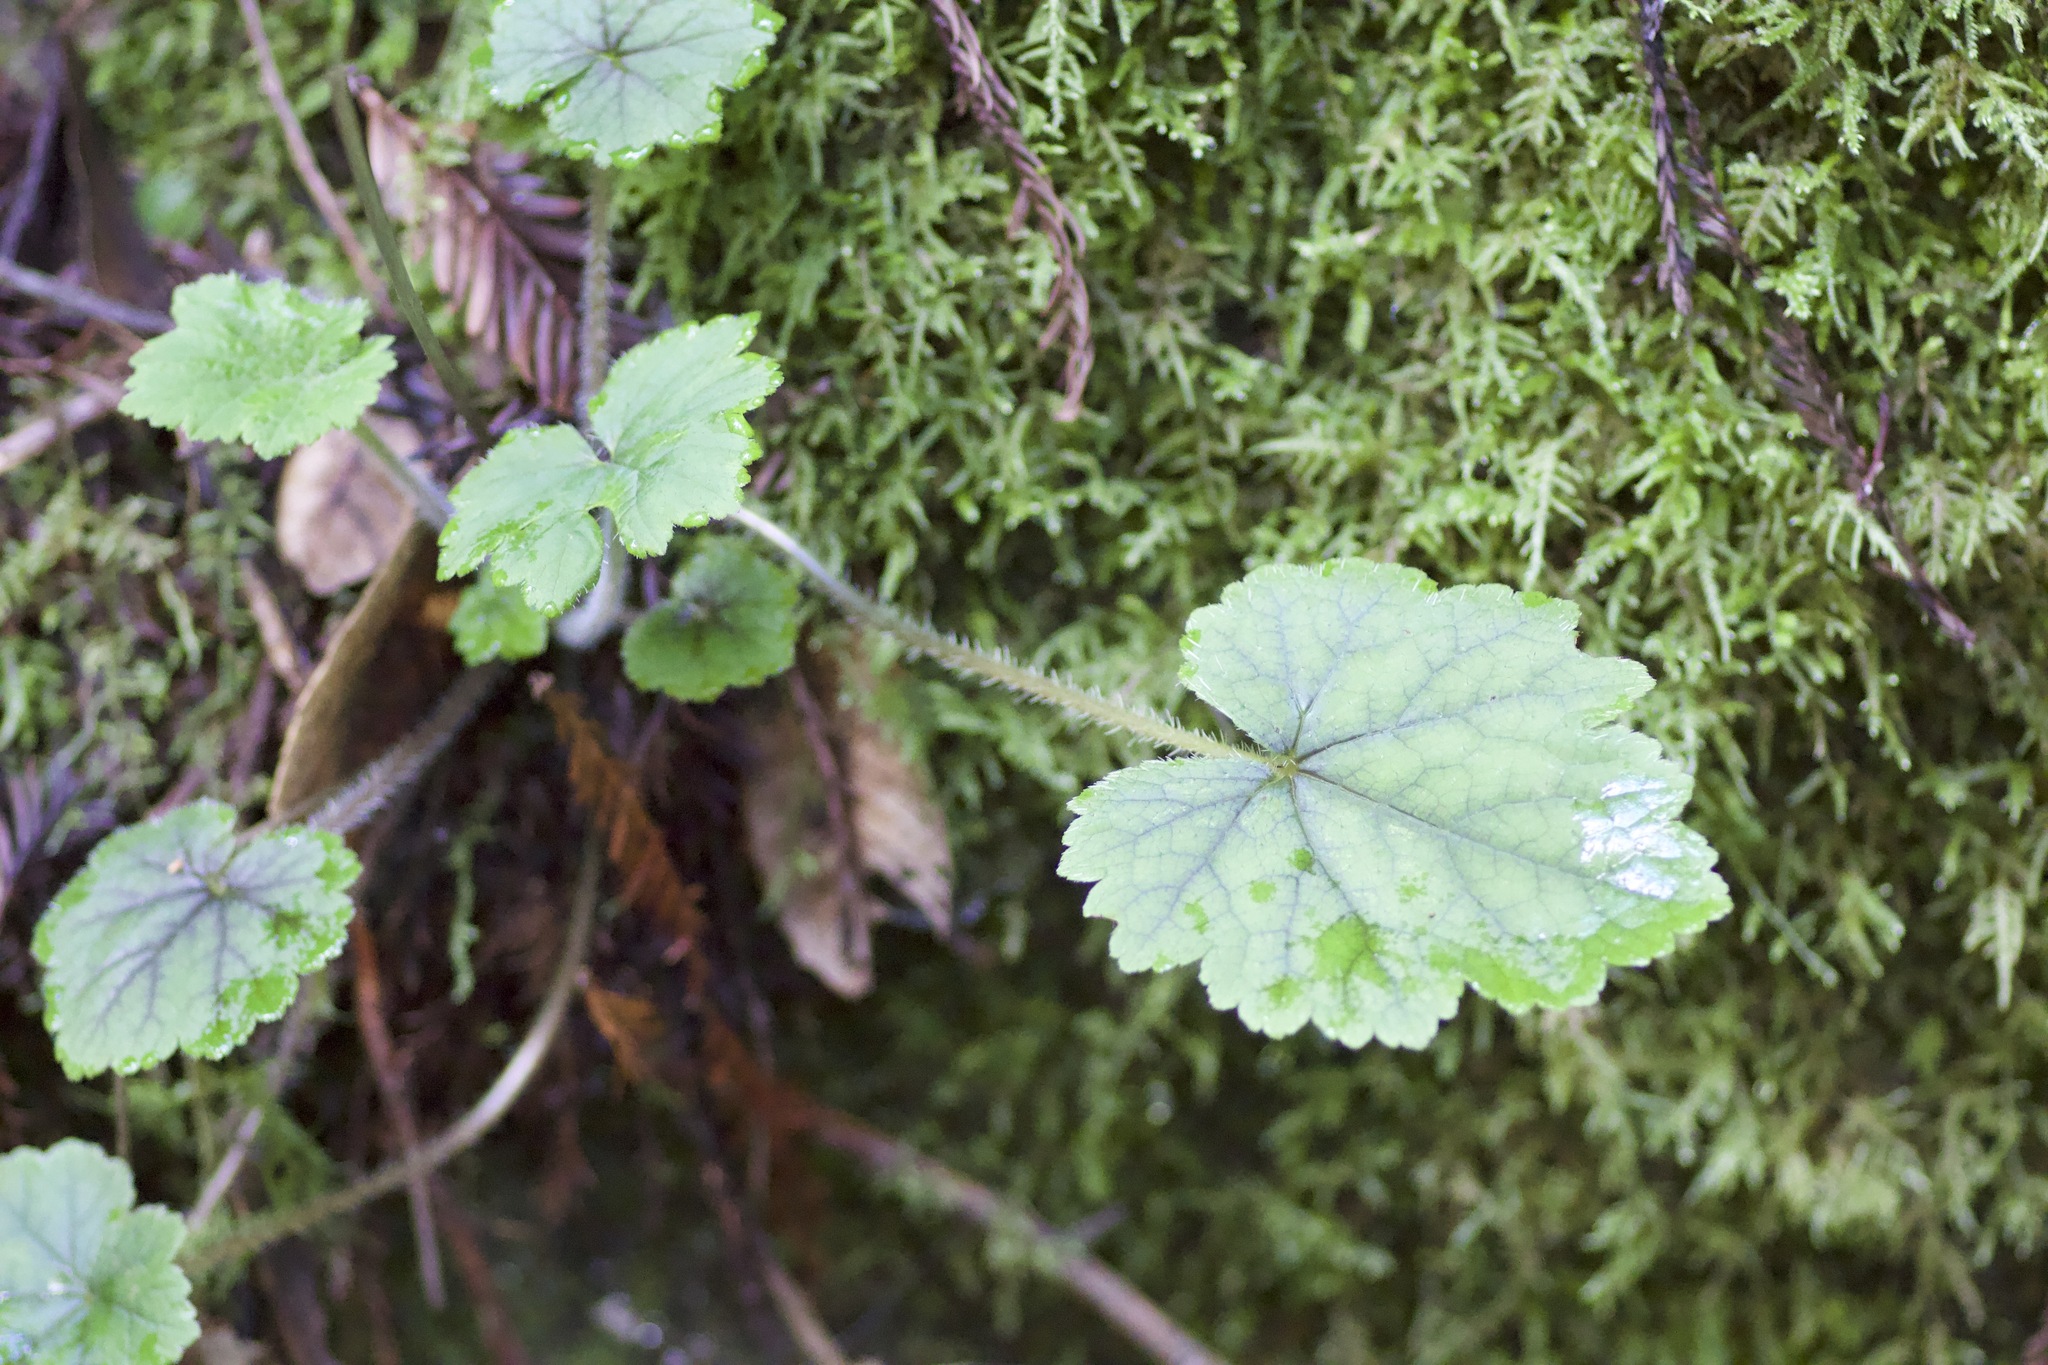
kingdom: Plantae
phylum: Tracheophyta
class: Magnoliopsida
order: Saxifragales
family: Saxifragaceae
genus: Tellima
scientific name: Tellima grandiflora
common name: Fringecups
